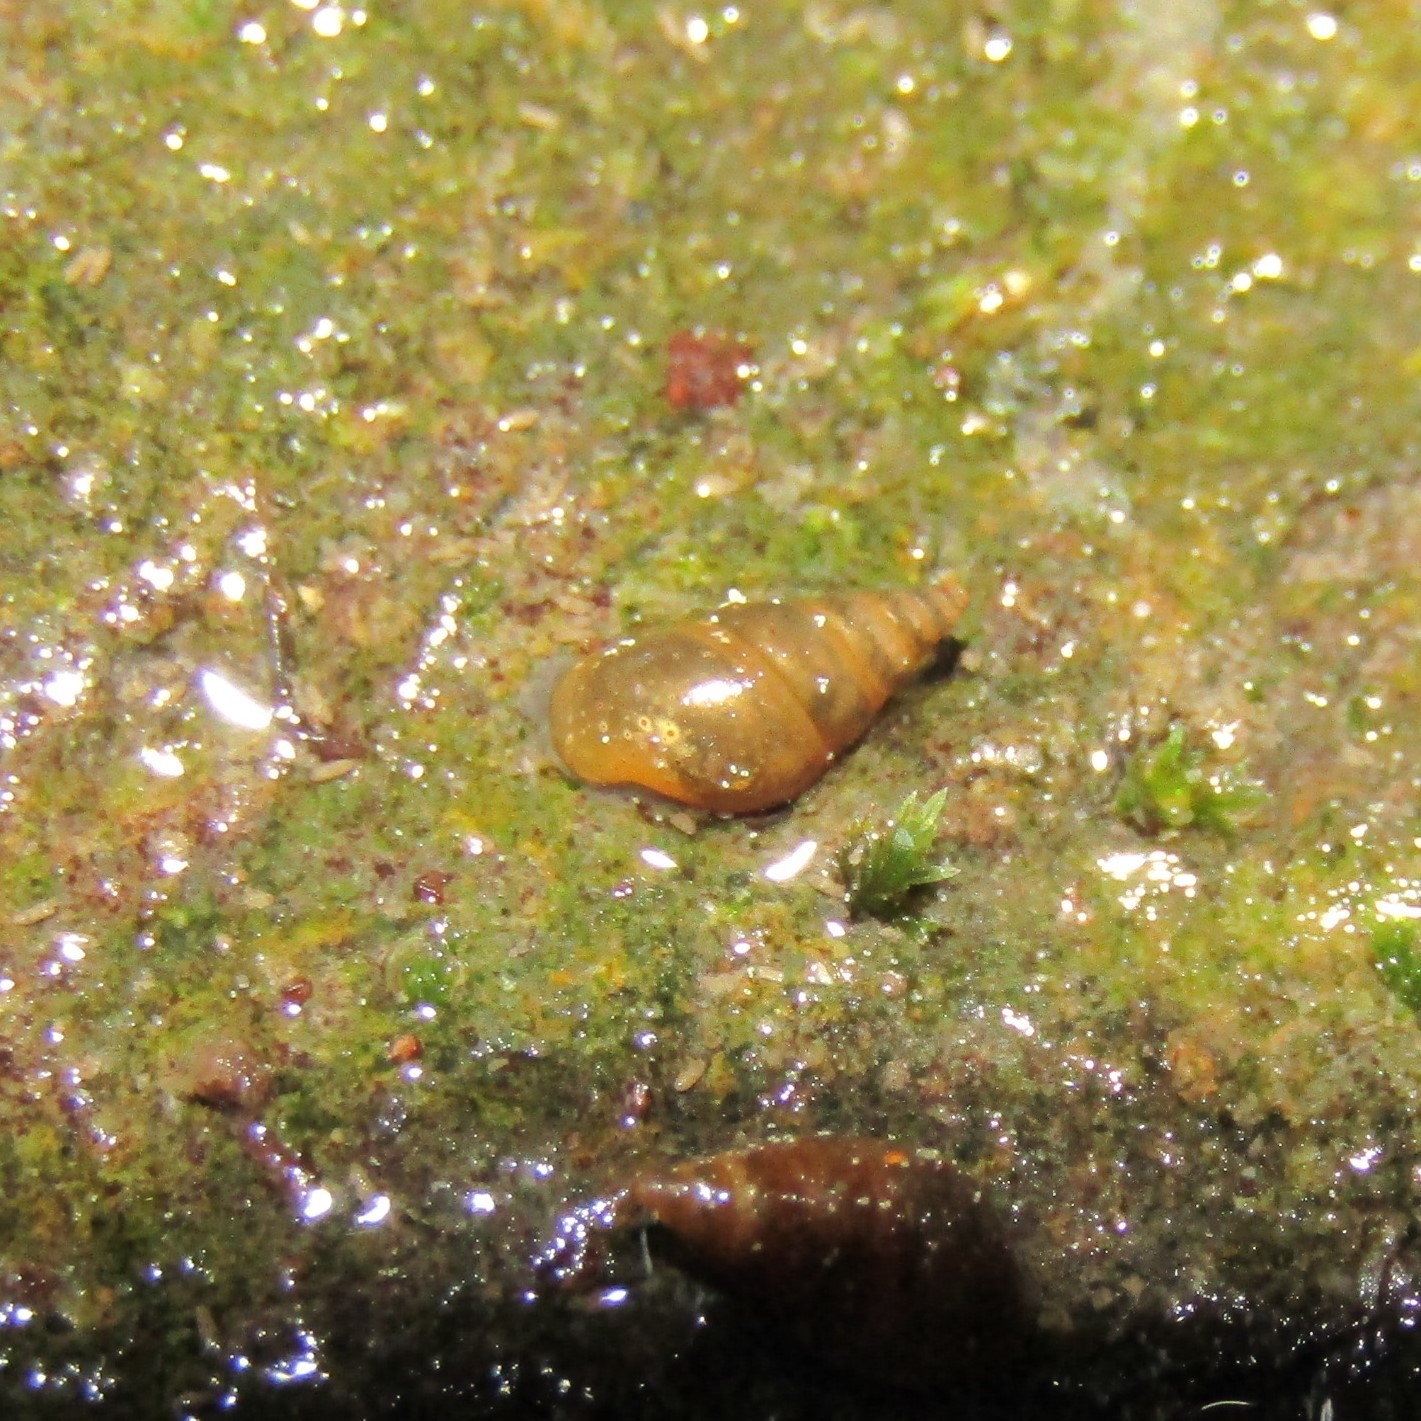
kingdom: Animalia
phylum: Mollusca
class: Gastropoda
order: Littorinimorpha
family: Tateidae
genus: Potamopyrgus
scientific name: Potamopyrgus antipodarum
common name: Jenkins' spire snail
